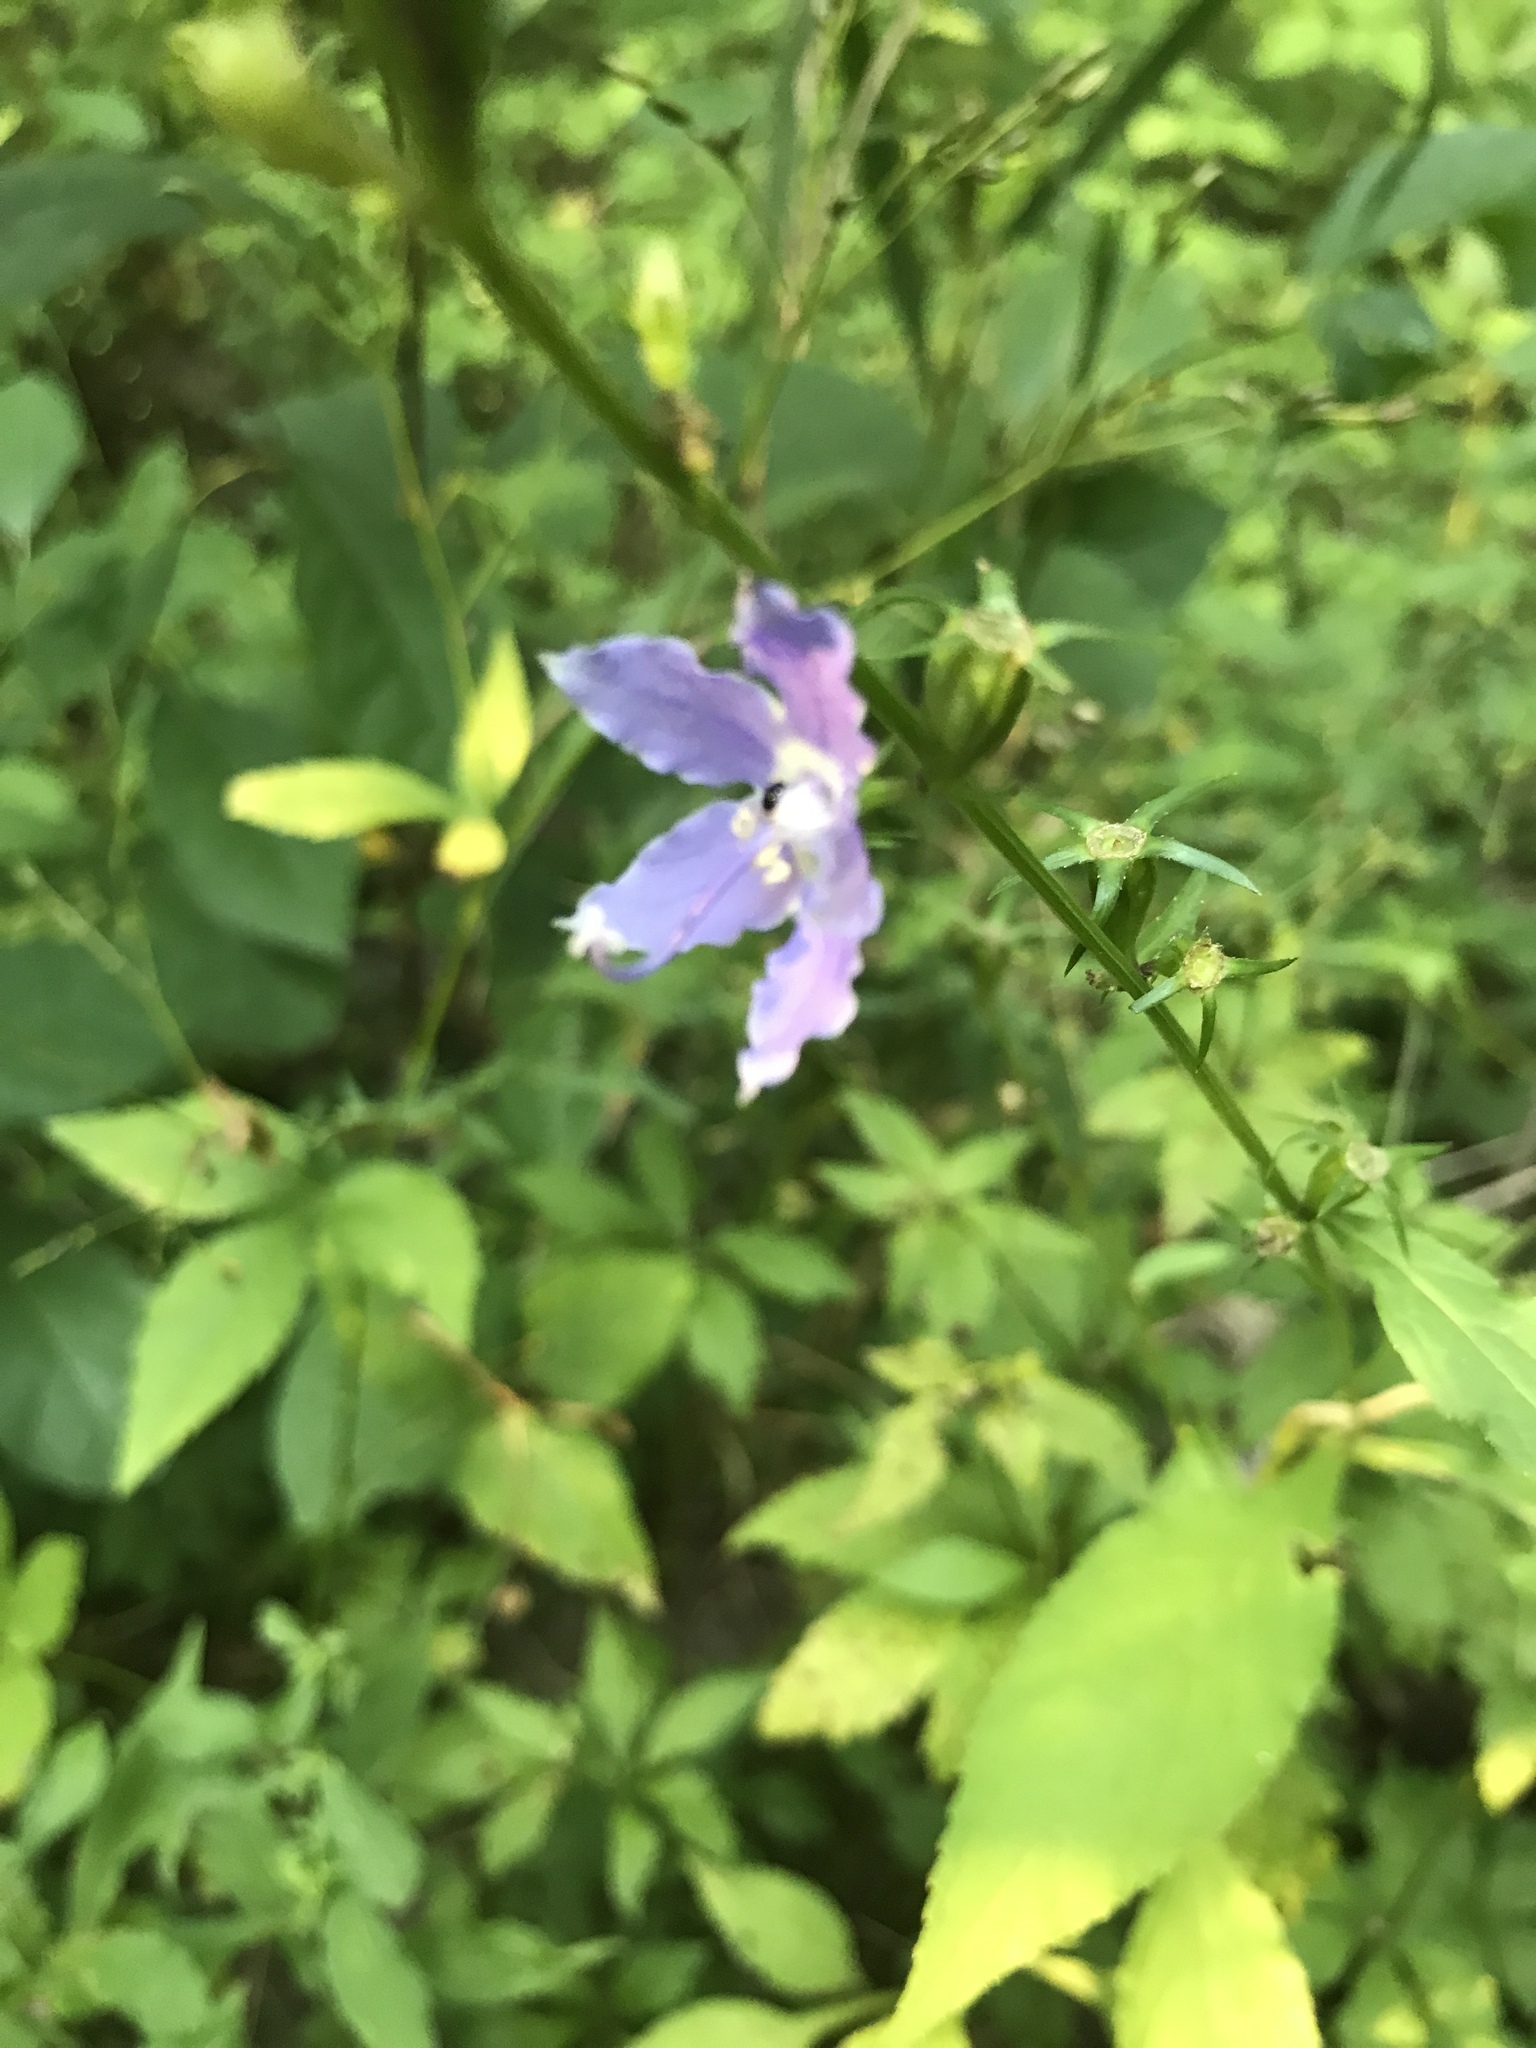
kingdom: Plantae
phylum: Tracheophyta
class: Magnoliopsida
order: Asterales
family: Campanulaceae
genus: Campanulastrum
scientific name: Campanulastrum americanum
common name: American bellflower
